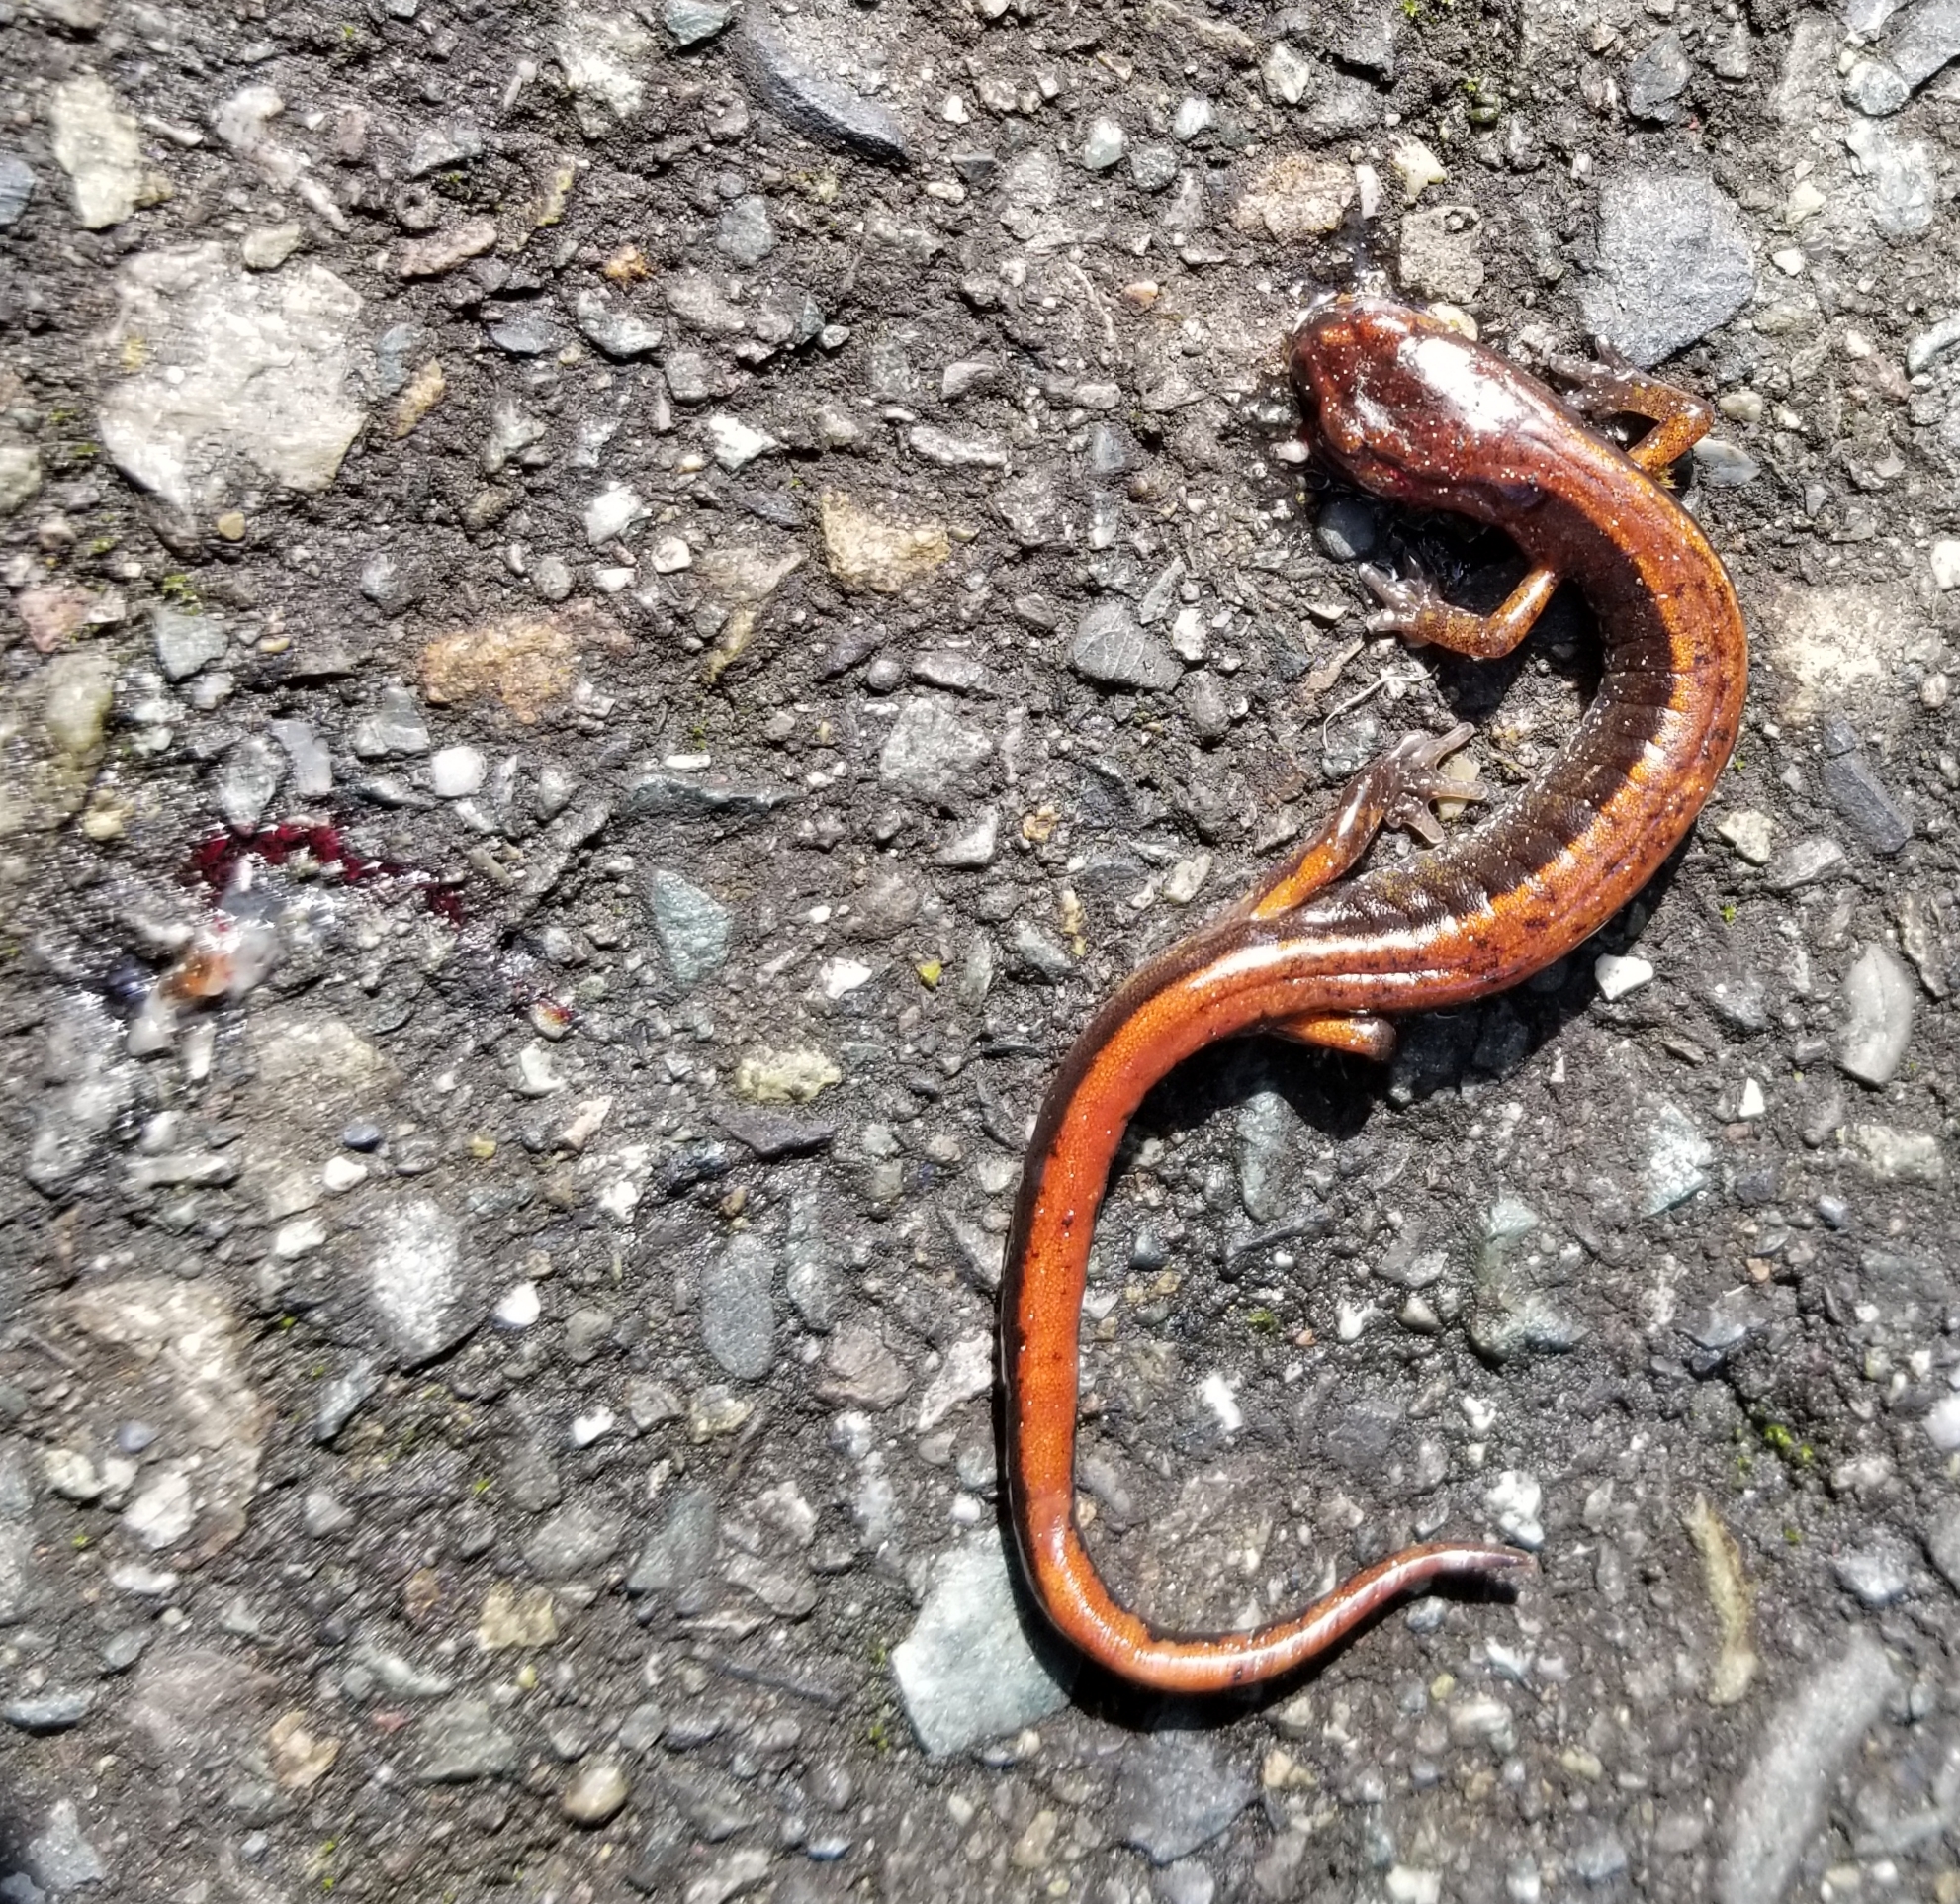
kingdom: Animalia
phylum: Chordata
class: Amphibia
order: Caudata
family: Plethodontidae
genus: Plethodon
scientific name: Plethodon vehiculum
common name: Western red-backed salamander
